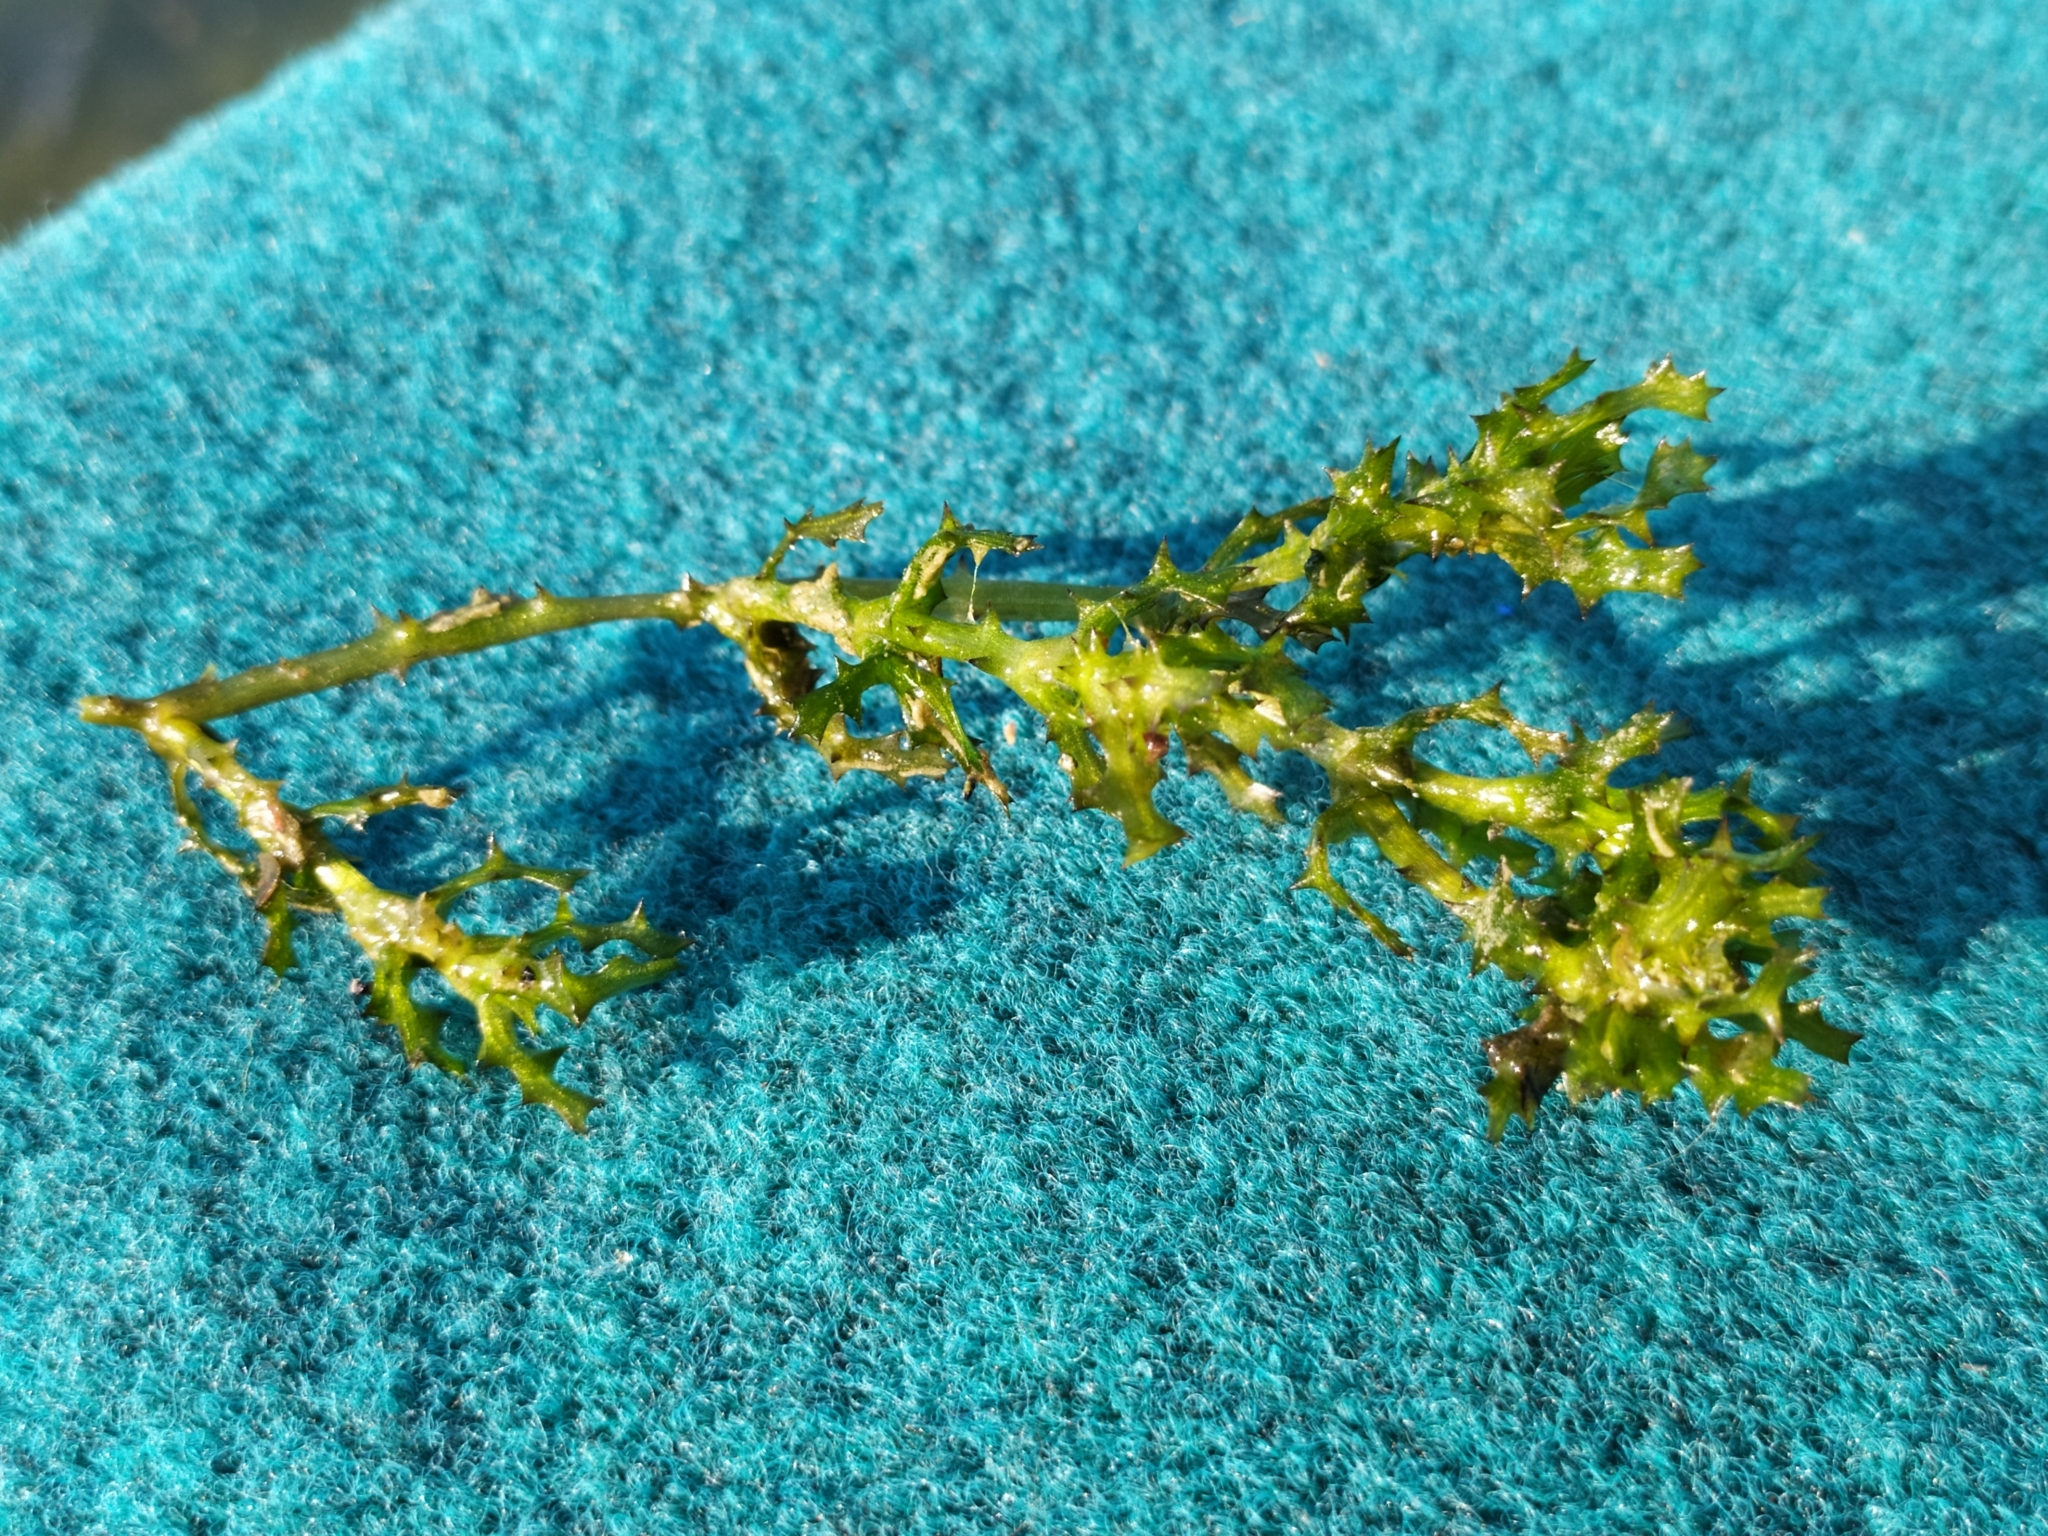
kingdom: Plantae
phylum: Tracheophyta
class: Liliopsida
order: Alismatales
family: Hydrocharitaceae
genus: Najas
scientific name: Najas marina
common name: Holly-leaved naiad
